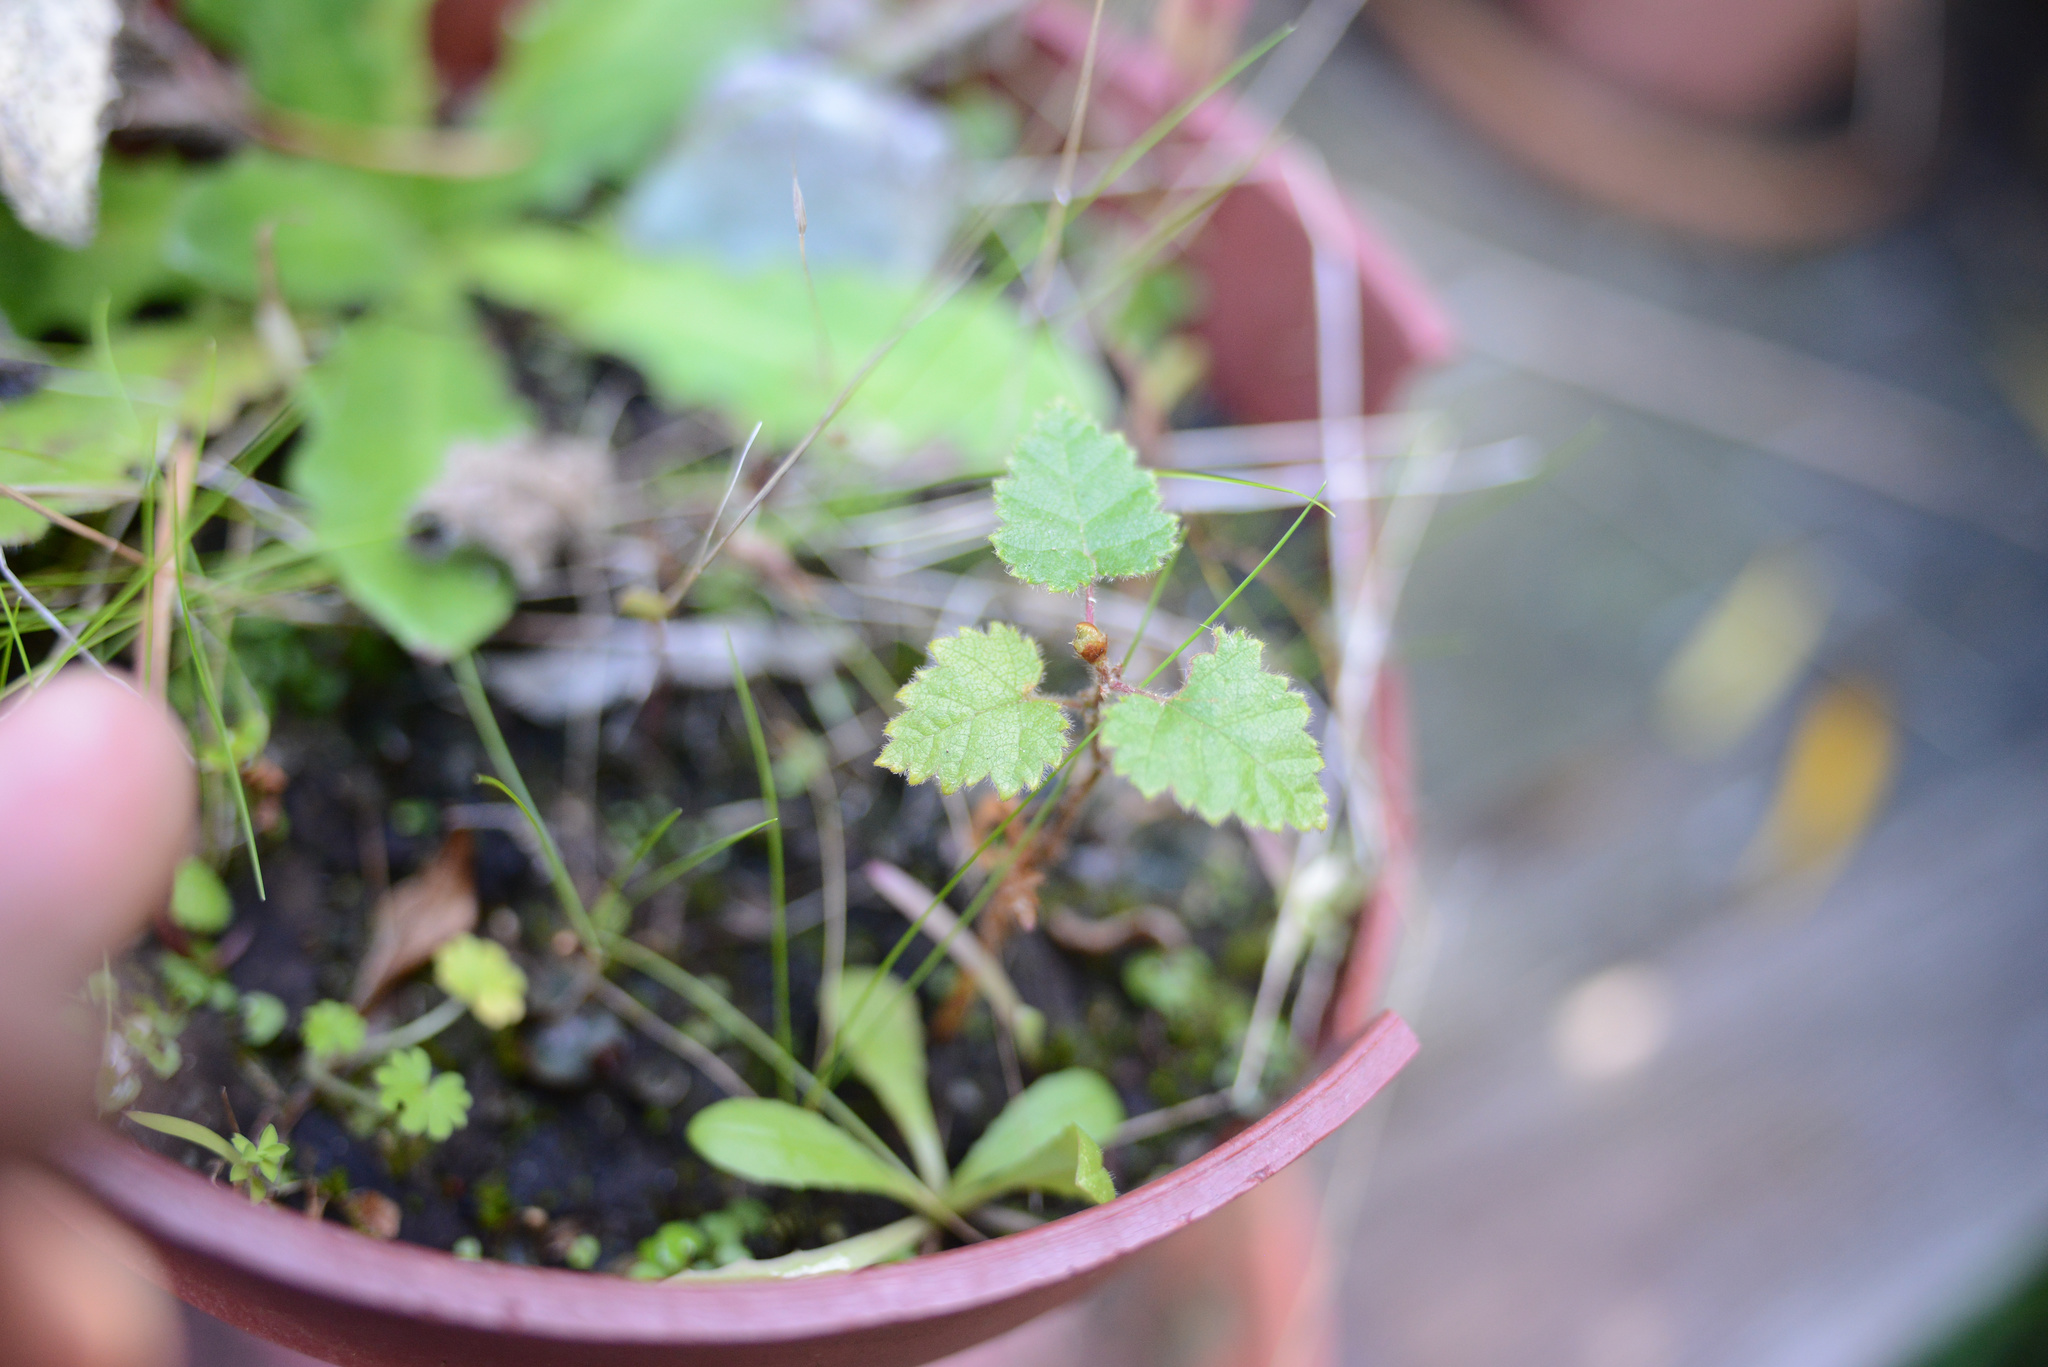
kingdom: Plantae
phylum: Tracheophyta
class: Magnoliopsida
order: Fagales
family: Betulaceae
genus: Betula
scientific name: Betula pendula
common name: Silver birch
